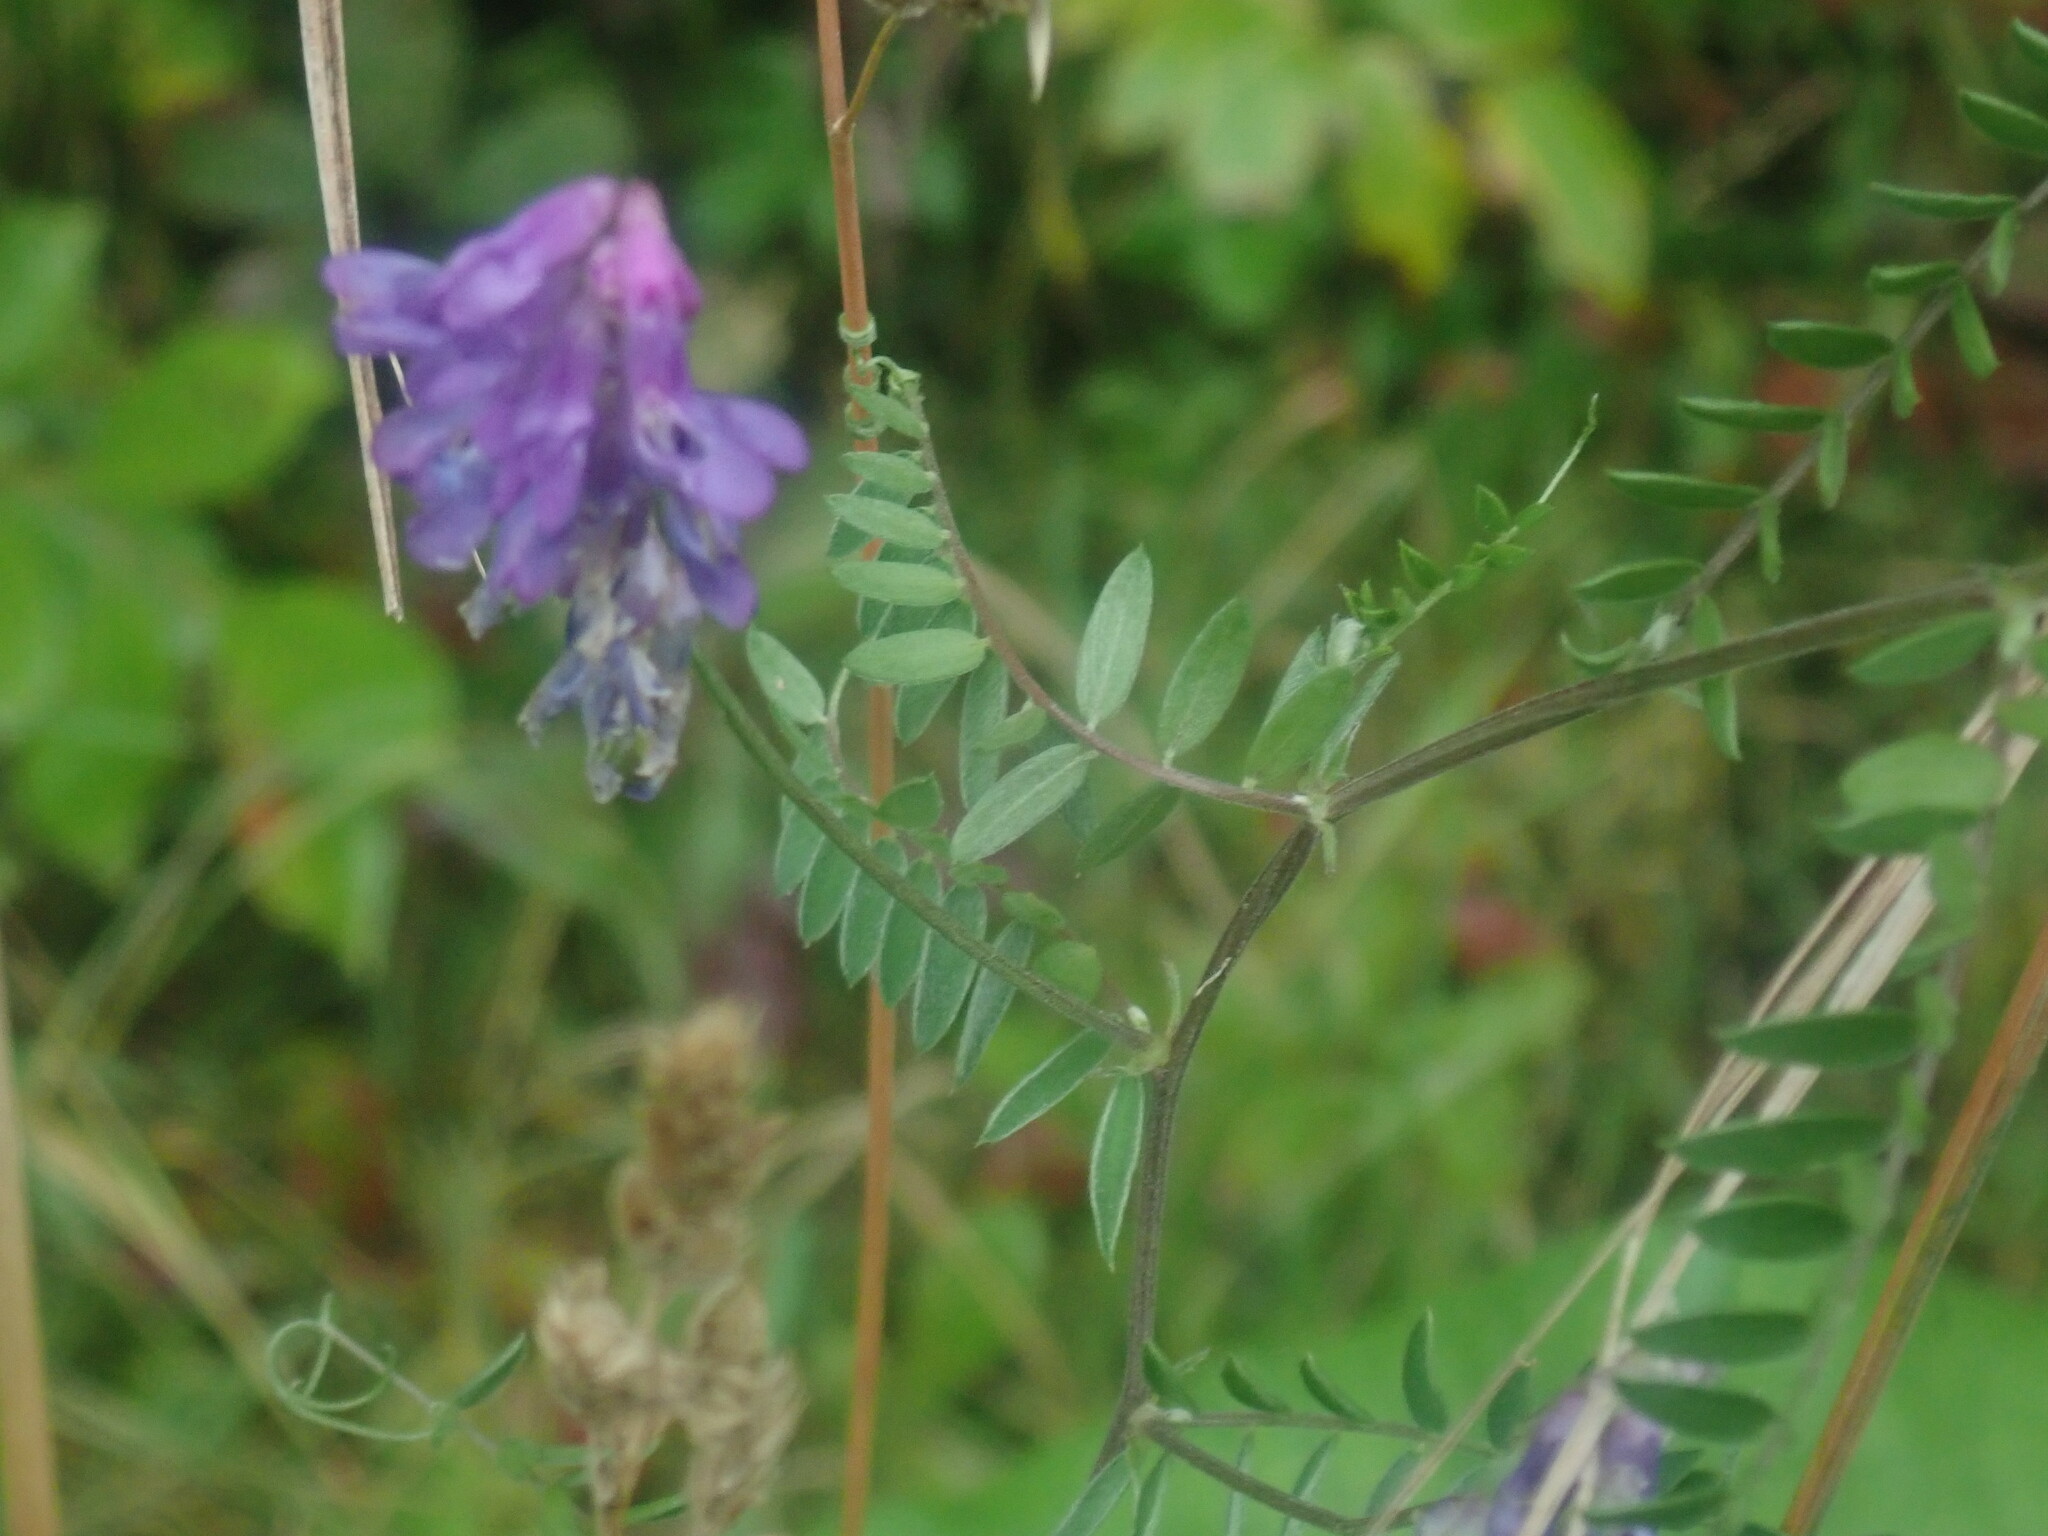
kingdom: Plantae
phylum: Tracheophyta
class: Magnoliopsida
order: Fabales
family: Fabaceae
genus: Vicia
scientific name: Vicia cracca
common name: Bird vetch
